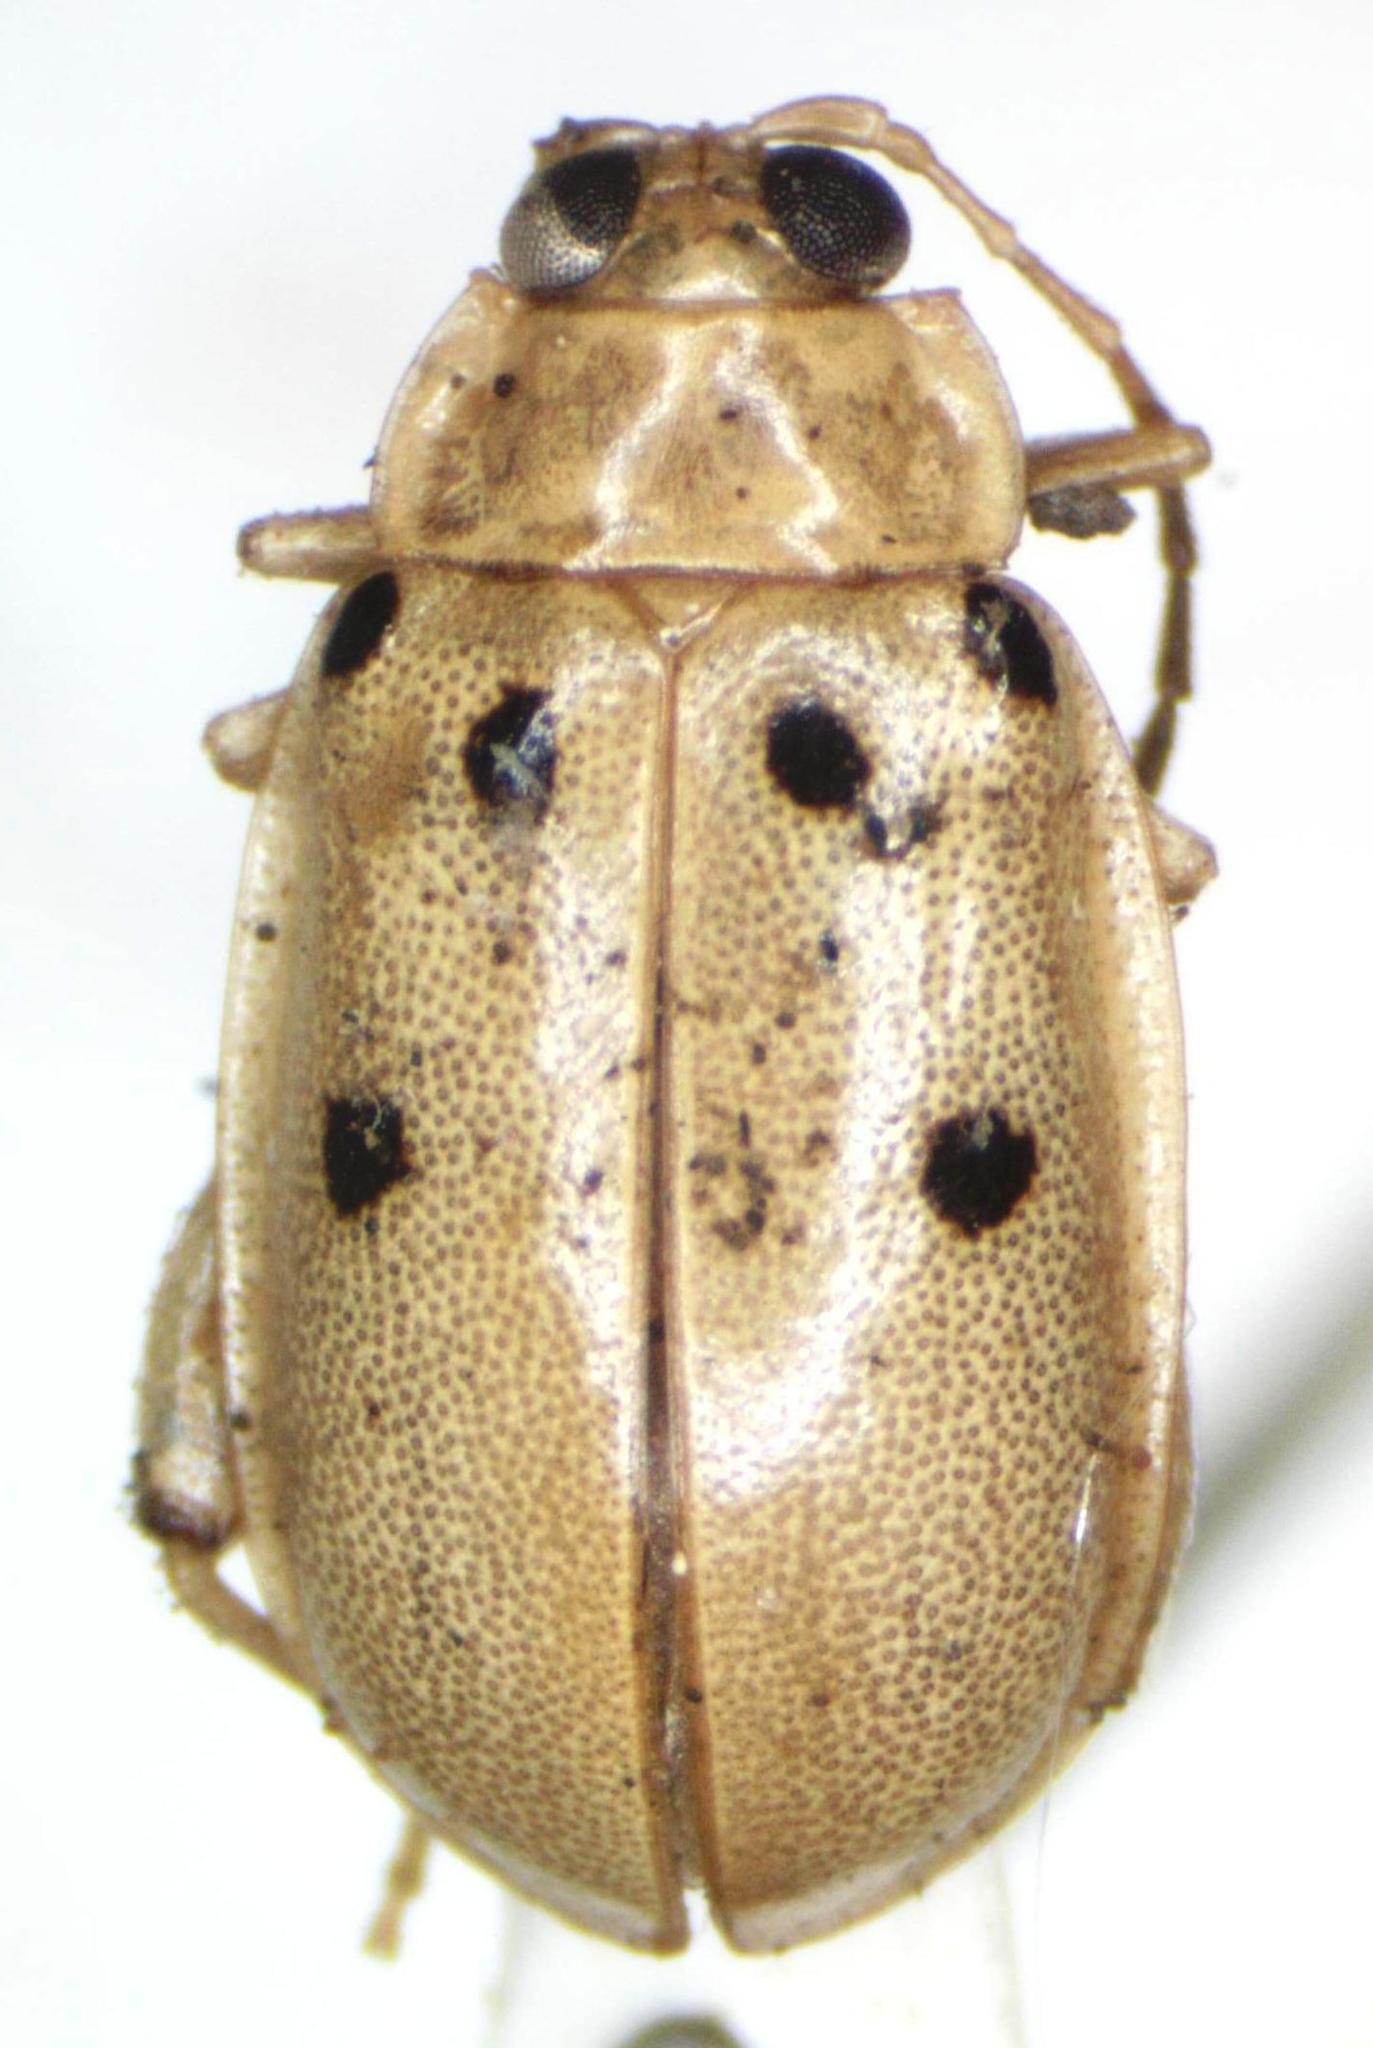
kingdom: Animalia
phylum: Arthropoda
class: Insecta
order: Coleoptera
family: Chrysomelidae
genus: Walterianella
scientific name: Walterianella
